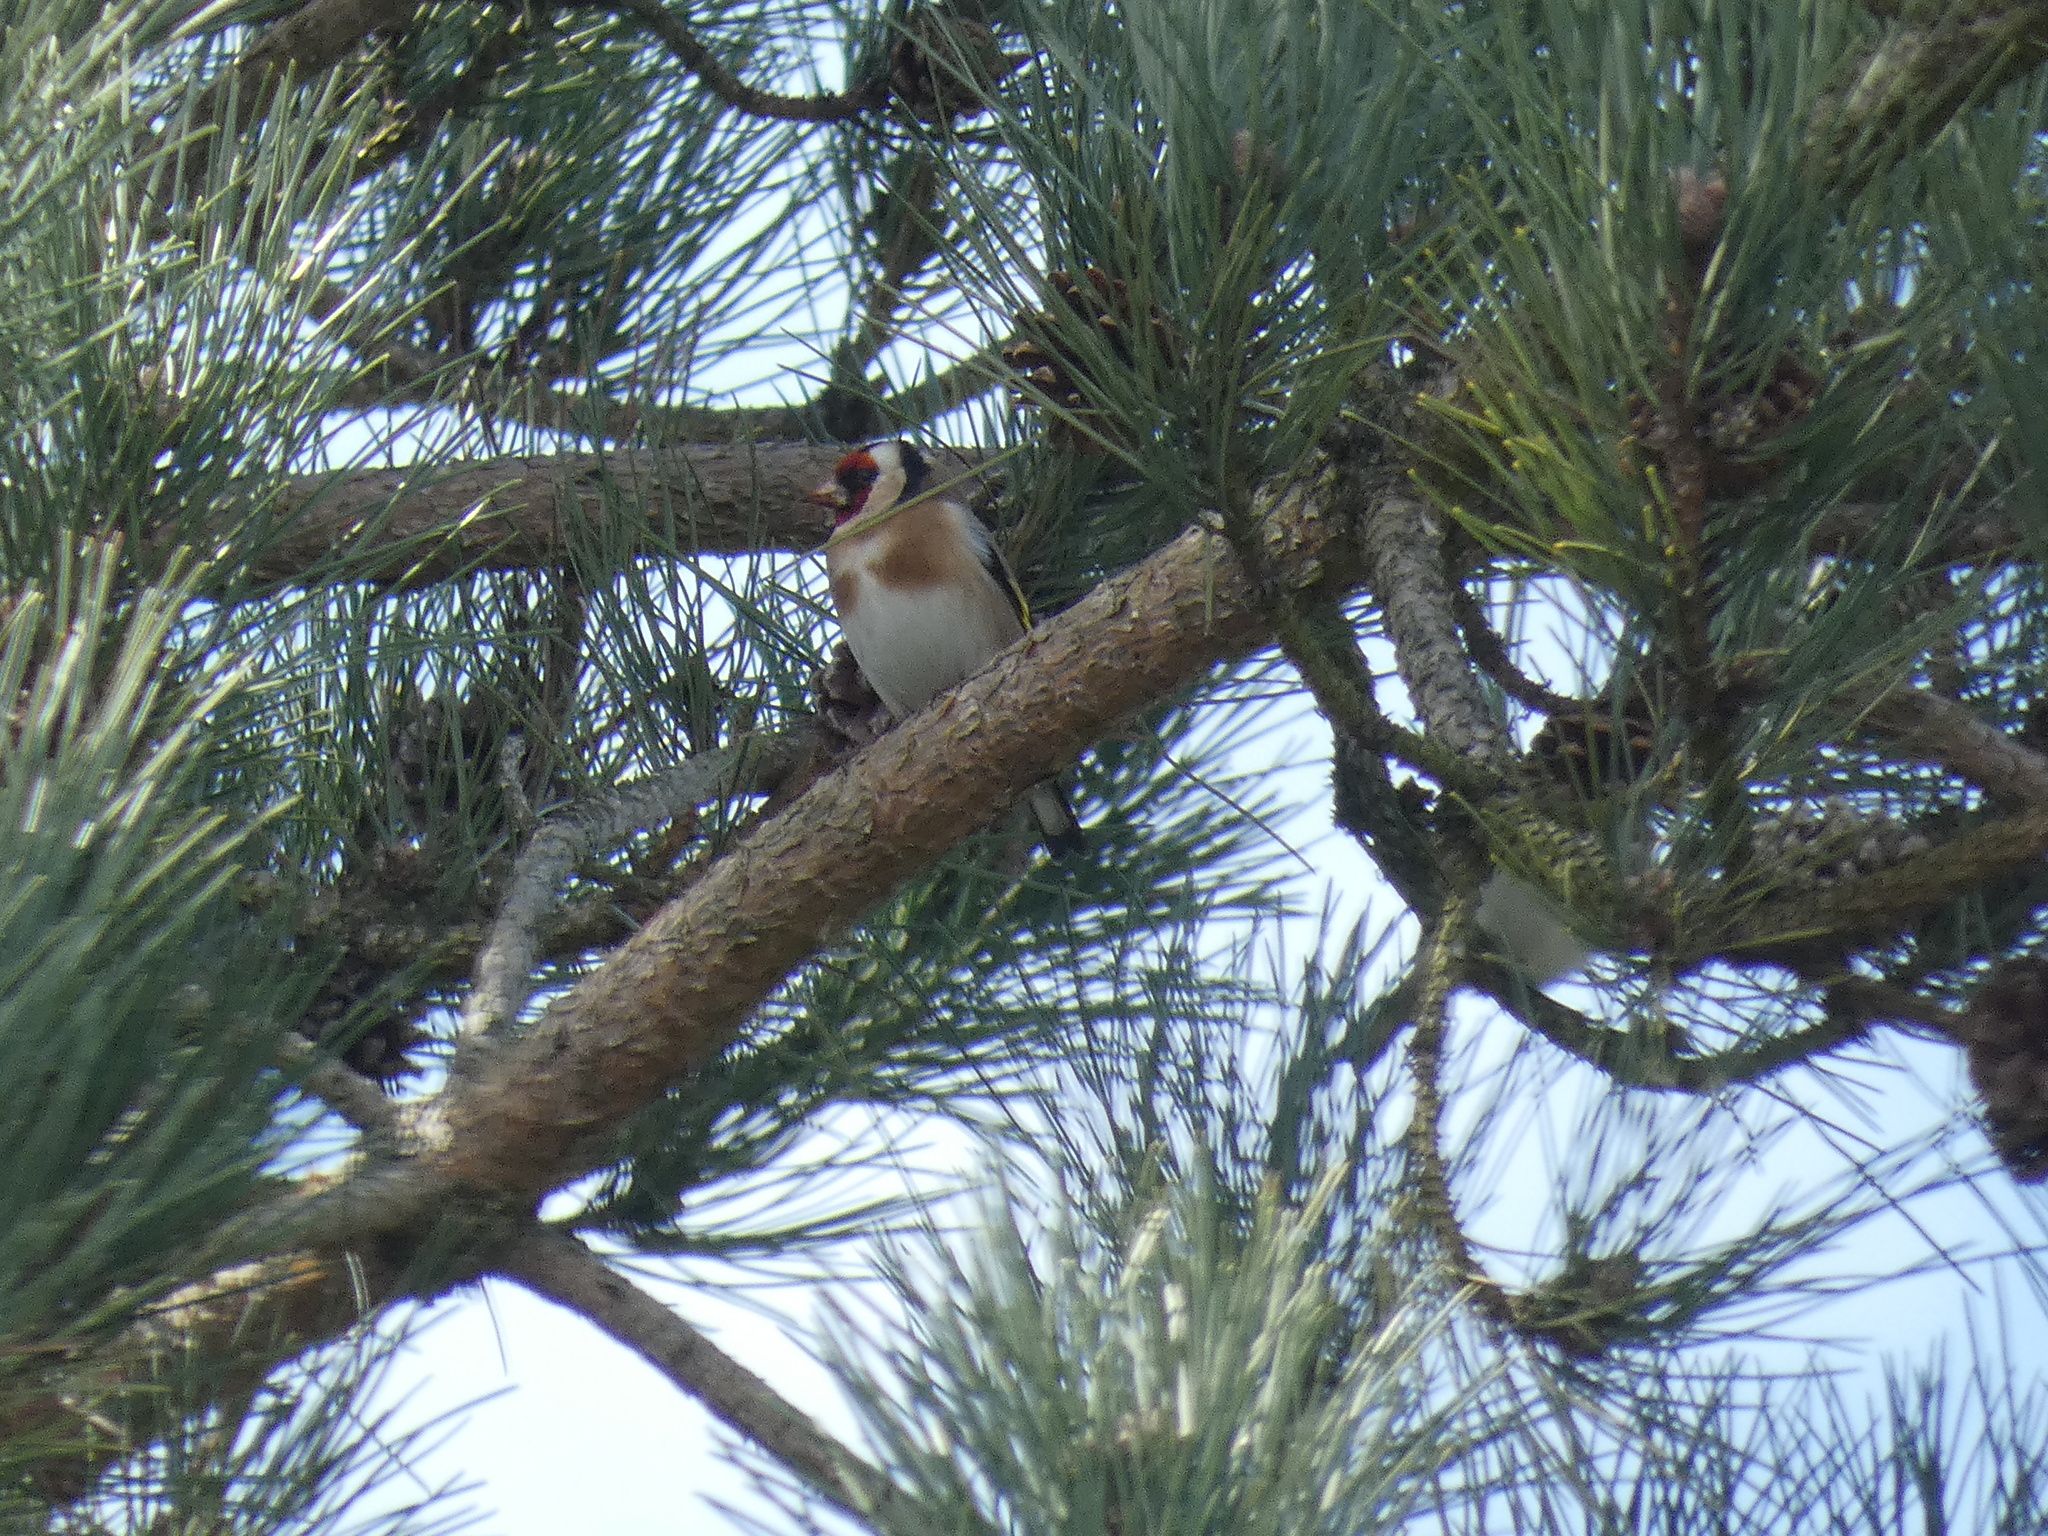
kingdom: Animalia
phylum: Chordata
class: Aves
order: Passeriformes
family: Fringillidae
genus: Carduelis
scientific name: Carduelis carduelis
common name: European goldfinch
